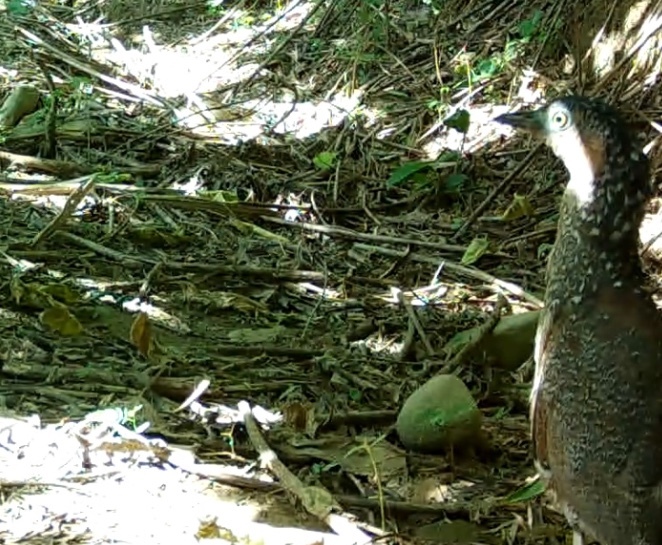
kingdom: Animalia
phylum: Chordata
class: Aves
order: Pelecaniformes
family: Ardeidae
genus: Gorsachius
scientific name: Gorsachius melanolophus
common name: Malayan night heron
